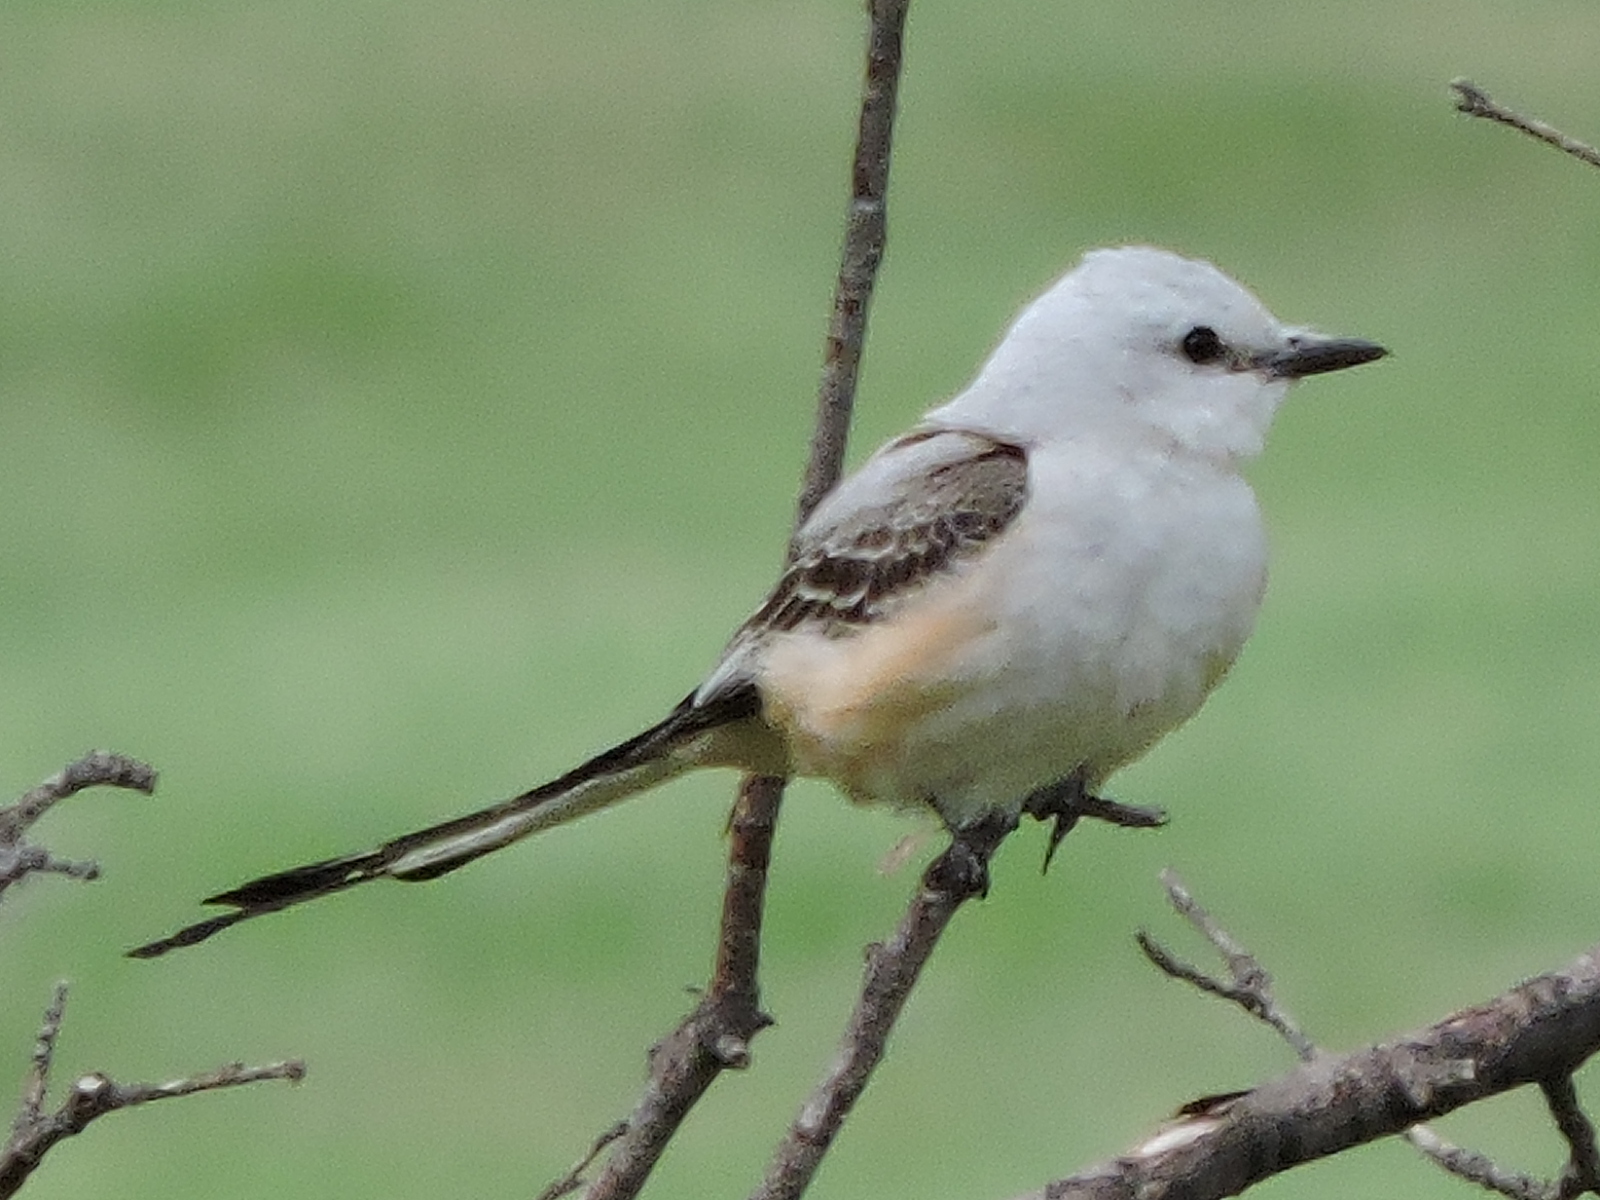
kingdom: Animalia
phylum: Chordata
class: Aves
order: Passeriformes
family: Tyrannidae
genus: Tyrannus
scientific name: Tyrannus forficatus
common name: Scissor-tailed flycatcher
